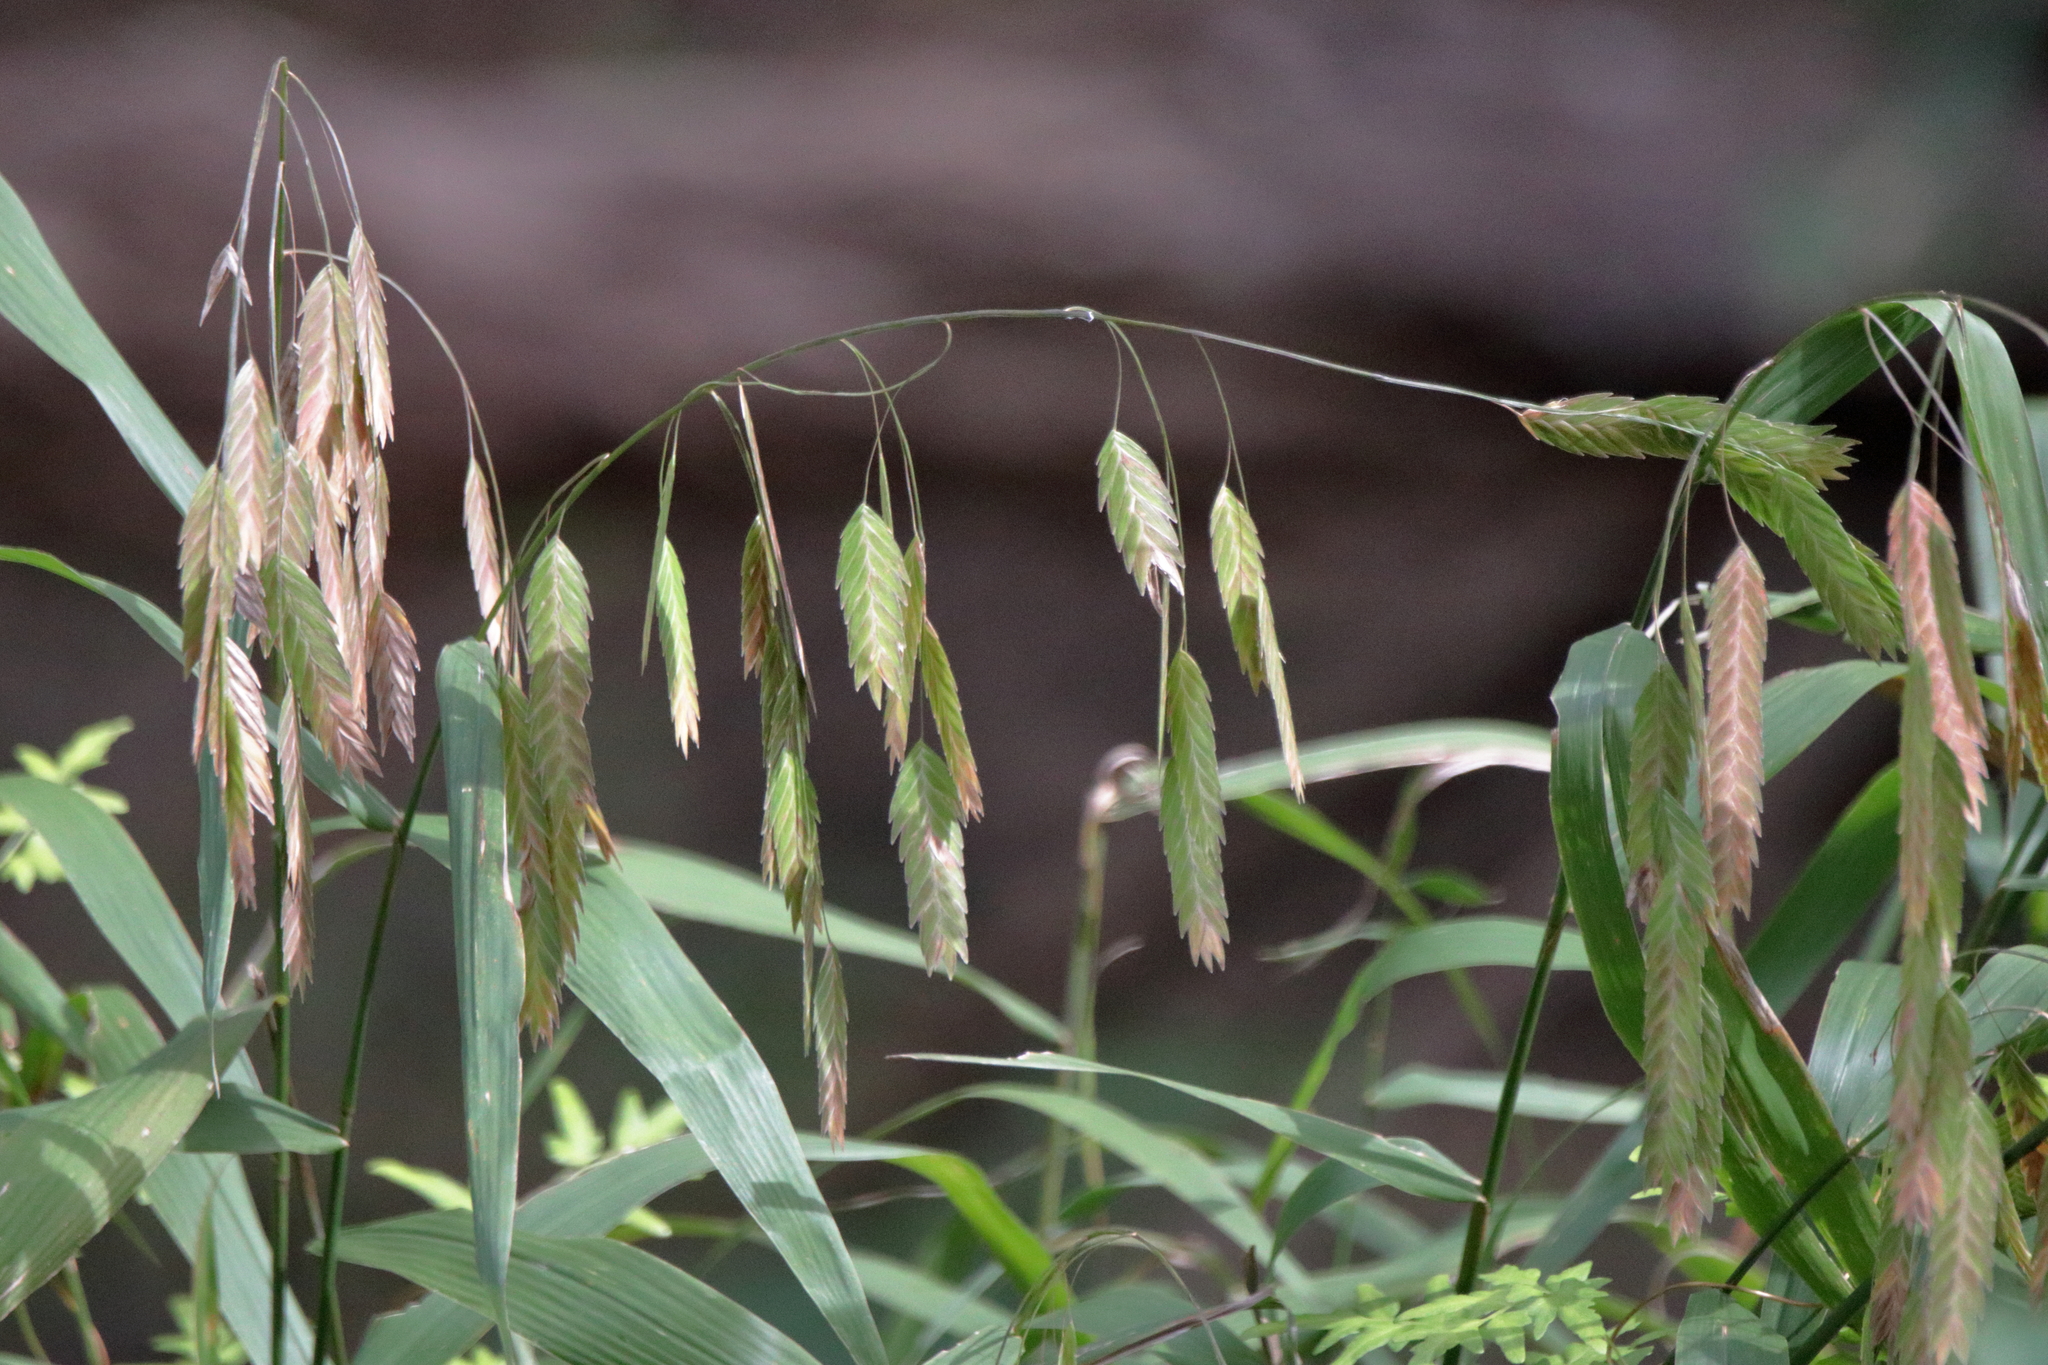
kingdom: Plantae
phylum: Tracheophyta
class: Liliopsida
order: Poales
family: Poaceae
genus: Chasmanthium
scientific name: Chasmanthium latifolium
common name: Broad-leaved chasmanthium
